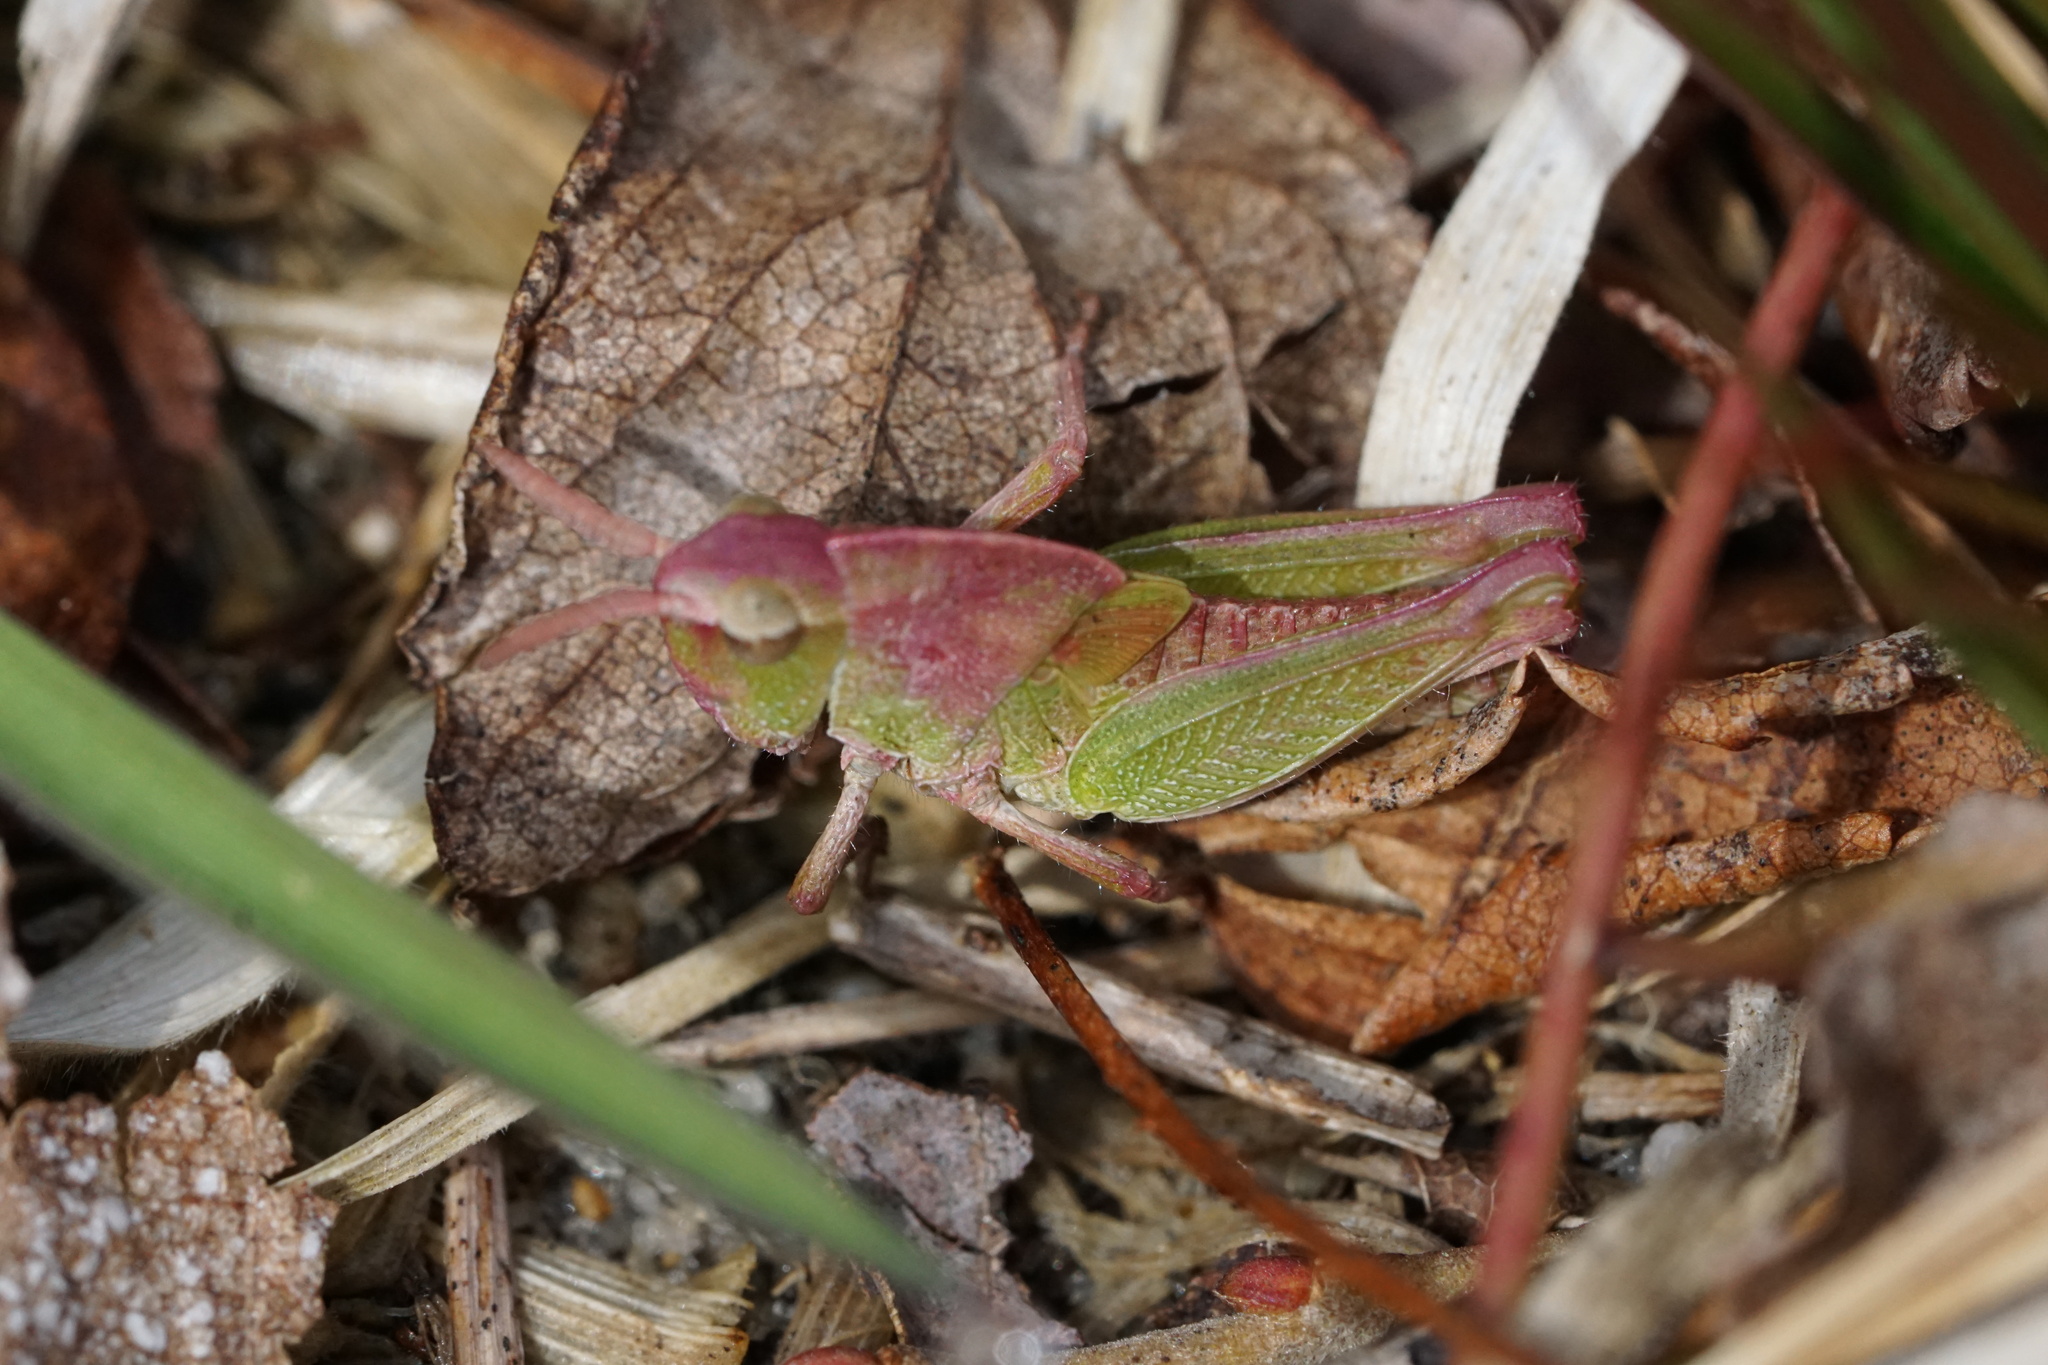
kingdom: Animalia
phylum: Arthropoda
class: Insecta
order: Orthoptera
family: Acrididae
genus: Chortophaga
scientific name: Chortophaga viridifasciata
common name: Green-striped grasshopper
